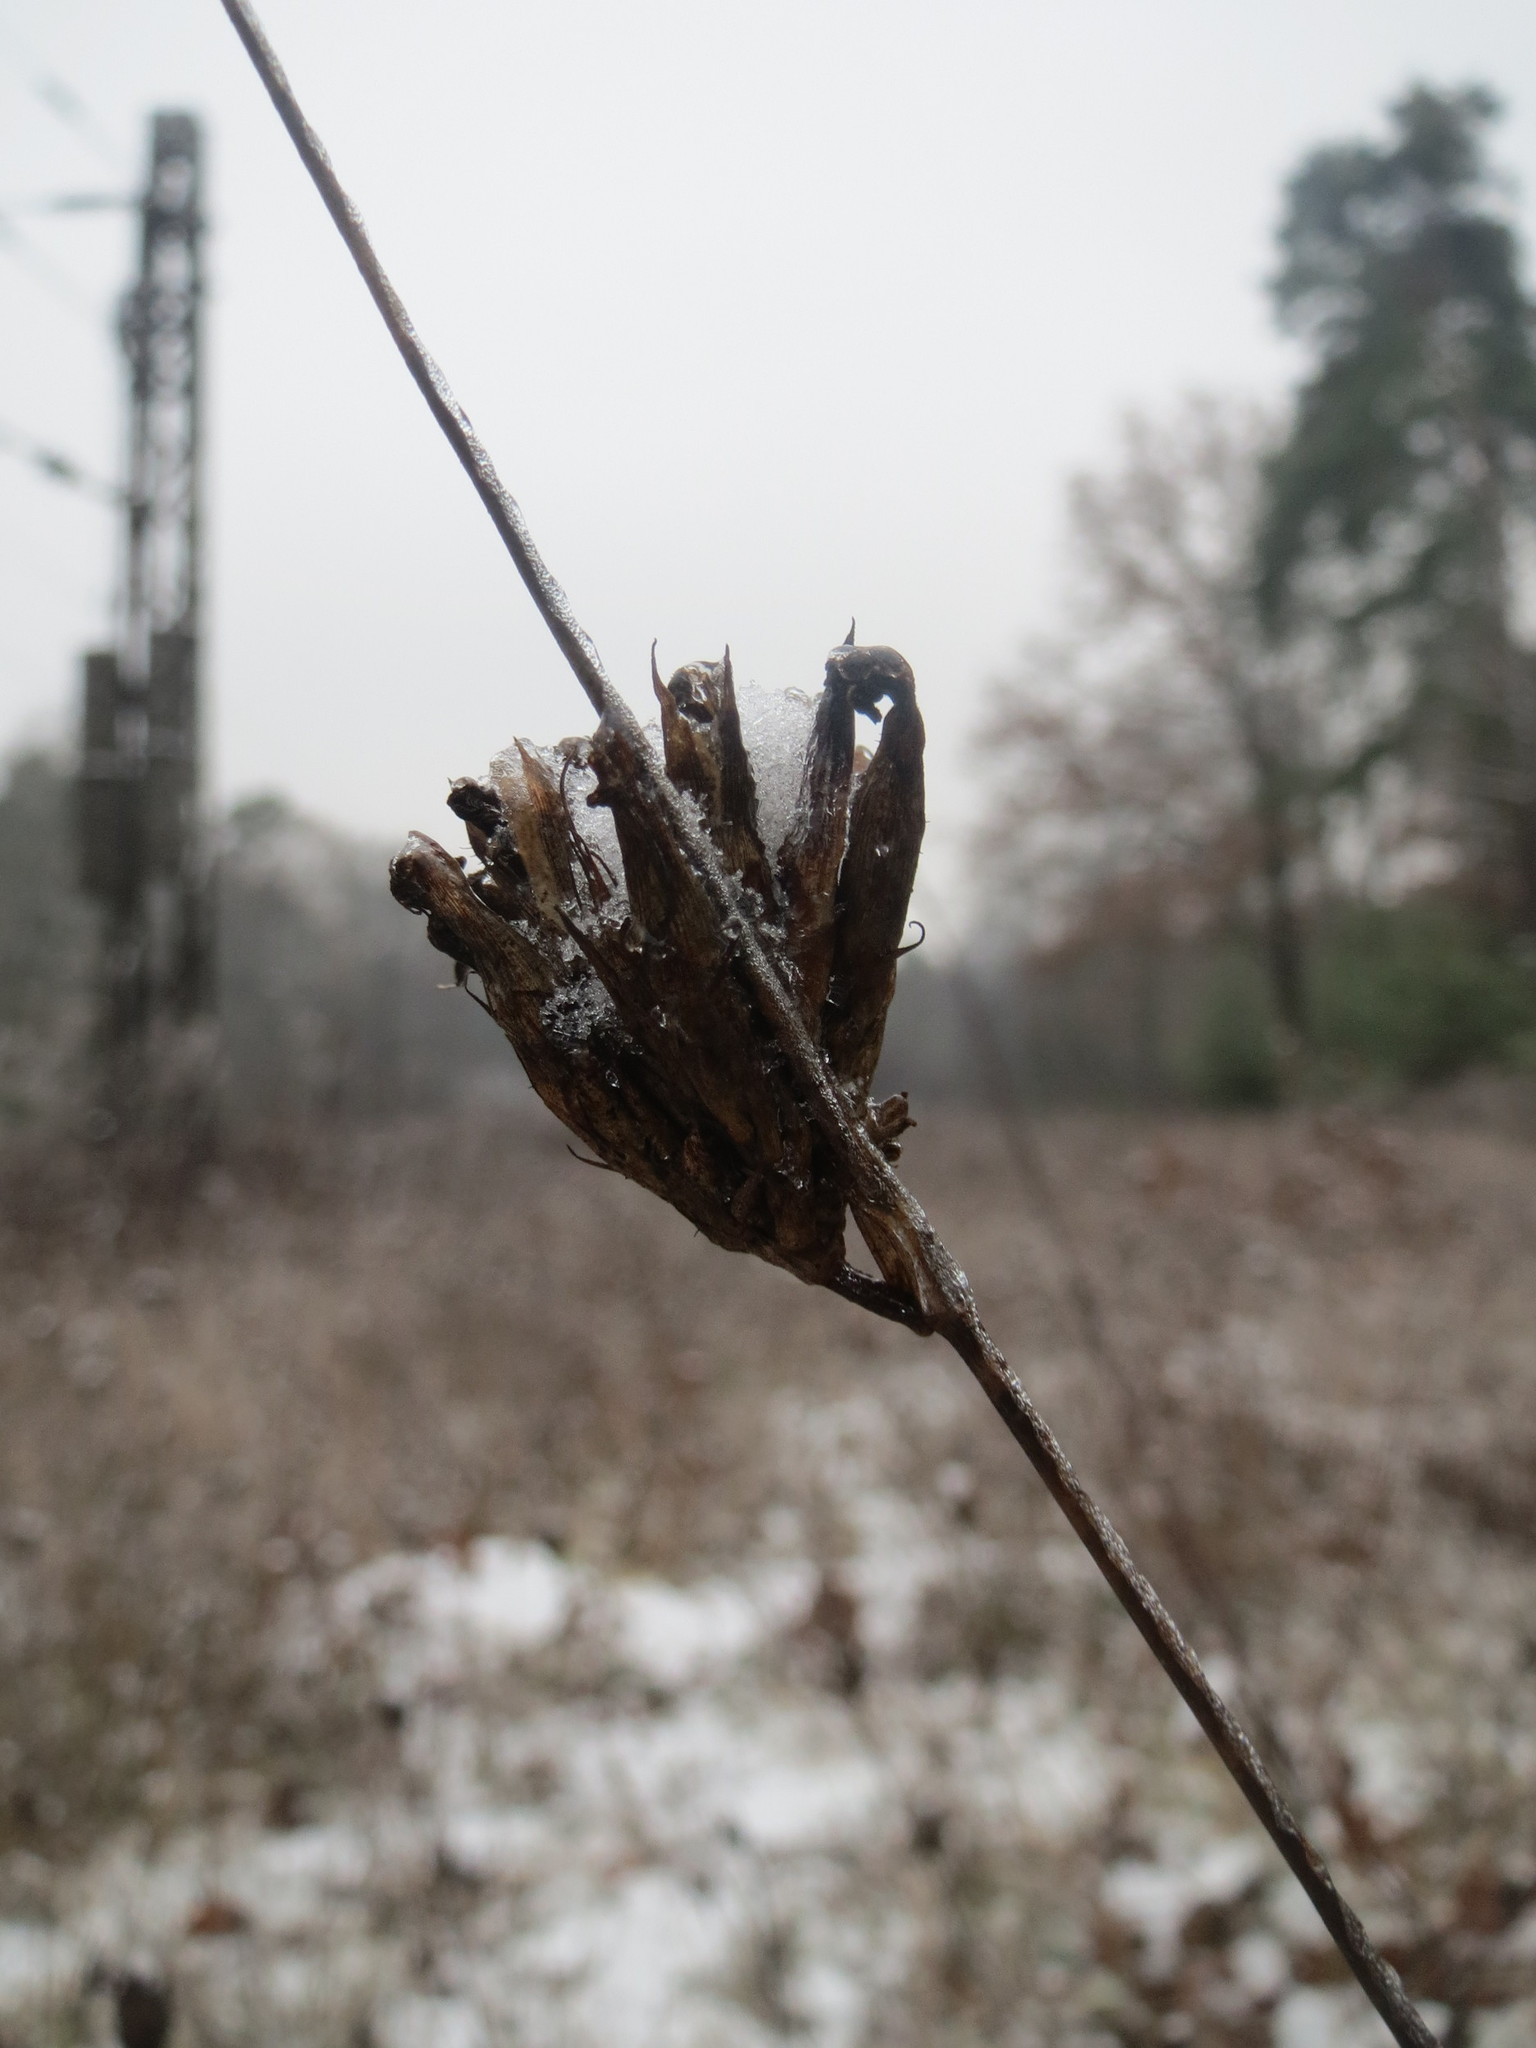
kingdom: Plantae
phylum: Tracheophyta
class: Magnoliopsida
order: Caryophyllales
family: Caryophyllaceae
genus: Dianthus
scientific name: Dianthus carthusianorum
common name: Carthusian pink
